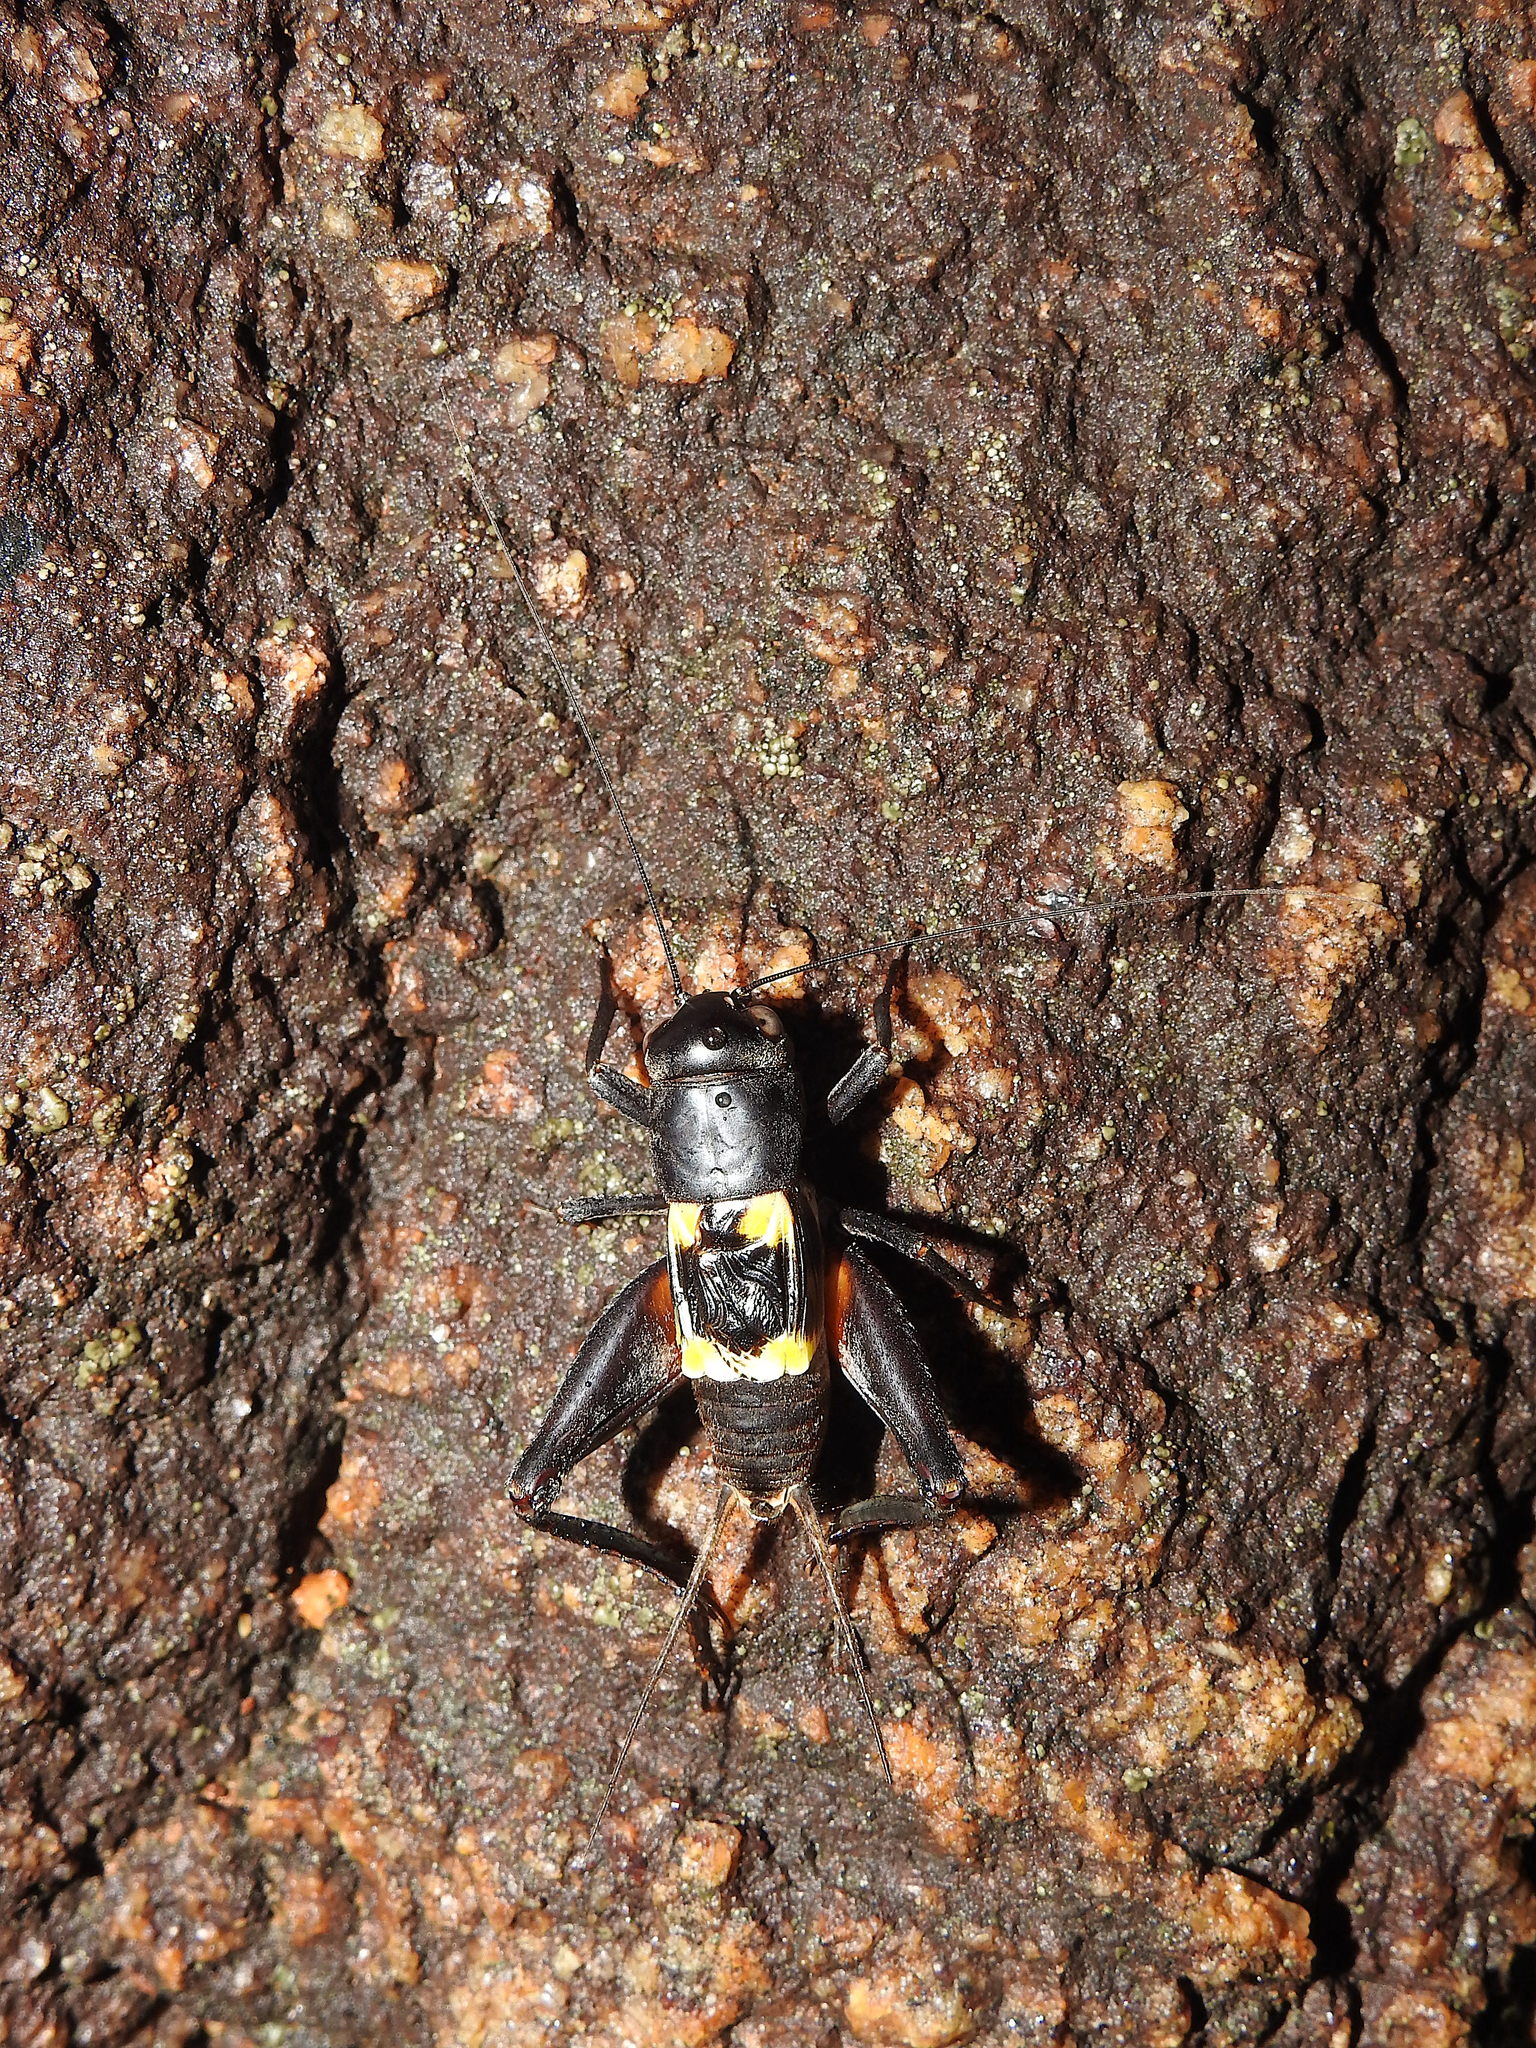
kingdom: Animalia
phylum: Arthropoda
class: Insecta
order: Orthoptera
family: Gryllidae
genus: Gryllus
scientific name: Gryllus quadrimaculatus
